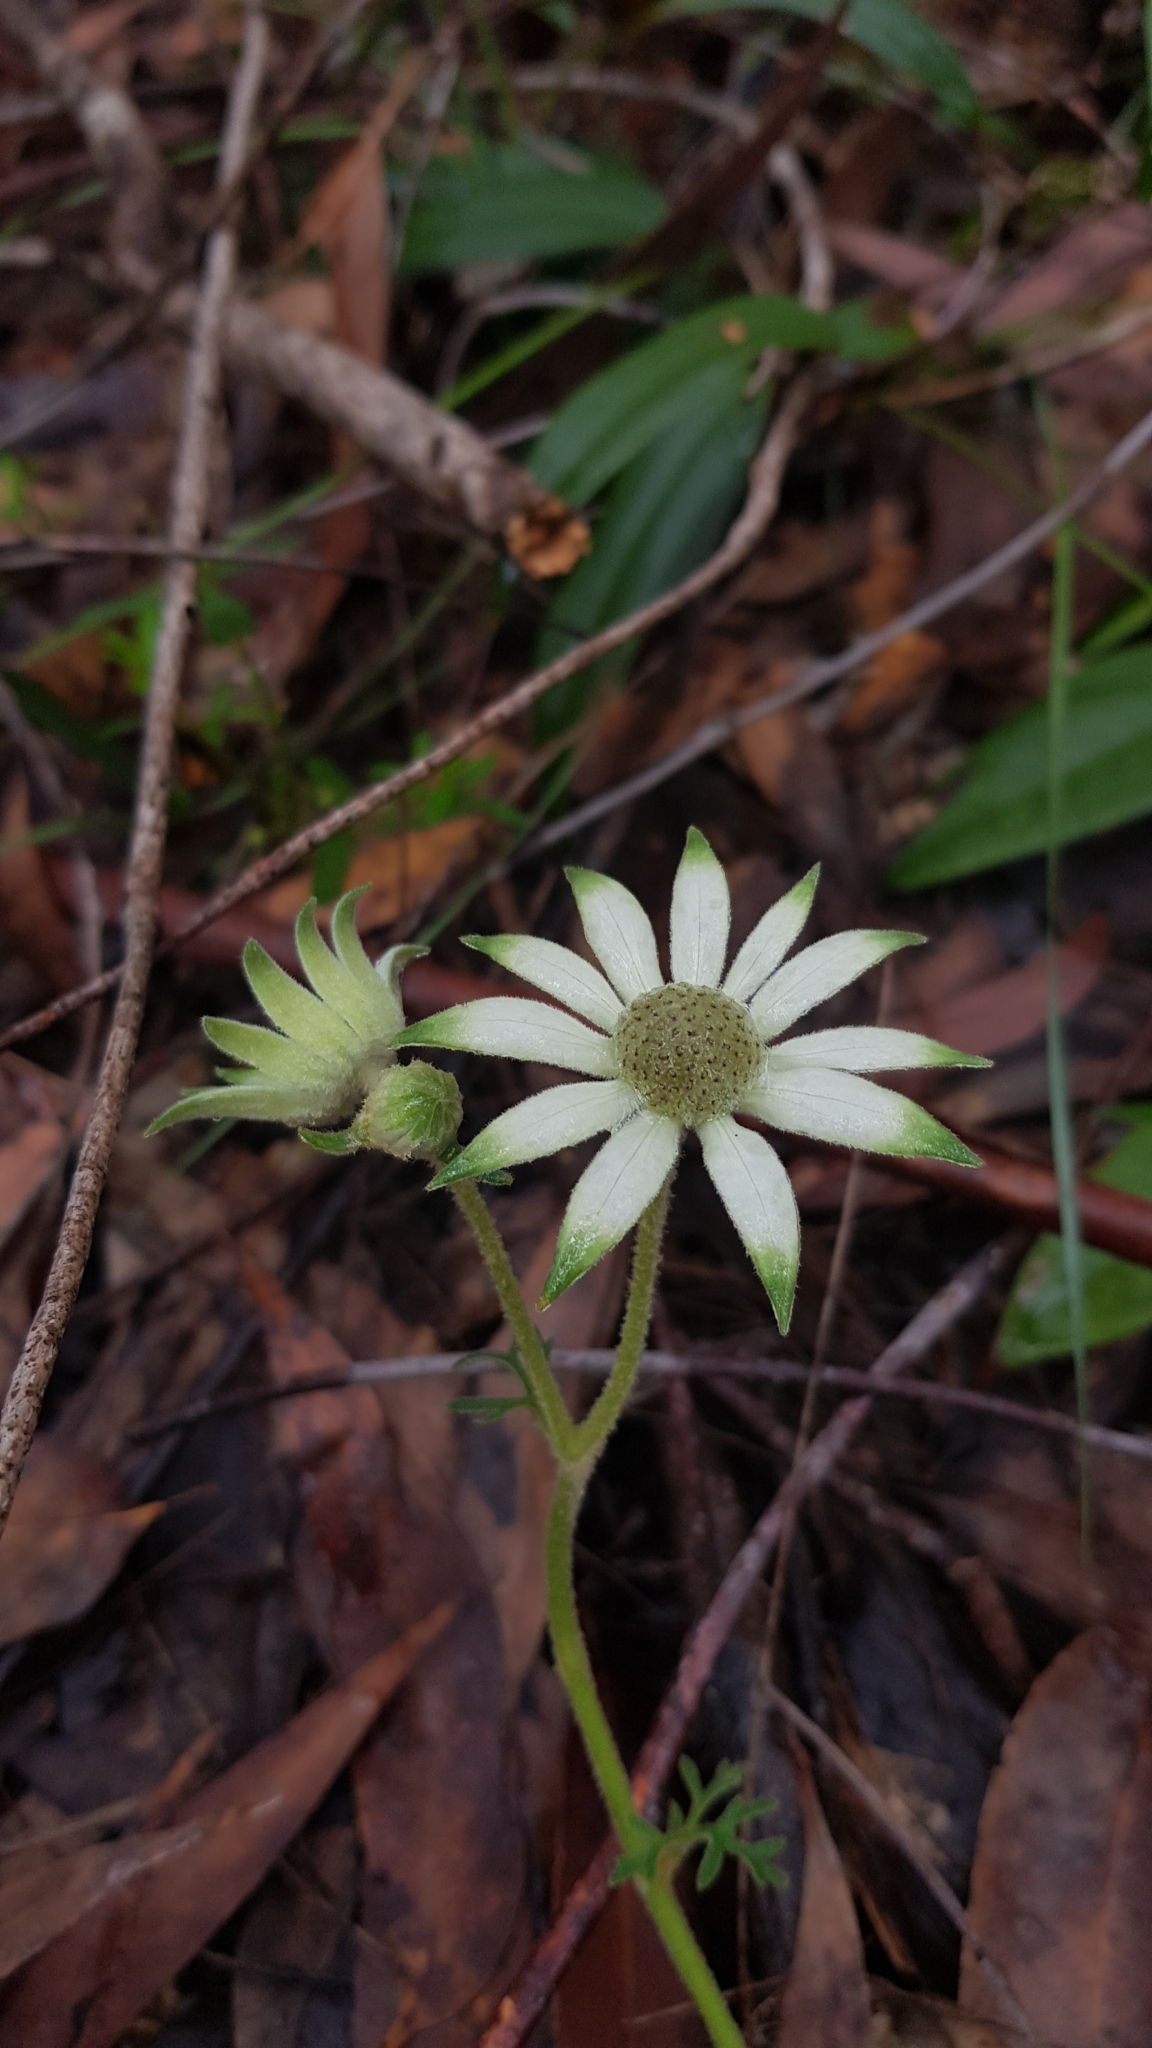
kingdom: Plantae
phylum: Tracheophyta
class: Magnoliopsida
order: Apiales
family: Apiaceae
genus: Actinotus
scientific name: Actinotus helianthi
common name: Flannel-flower
